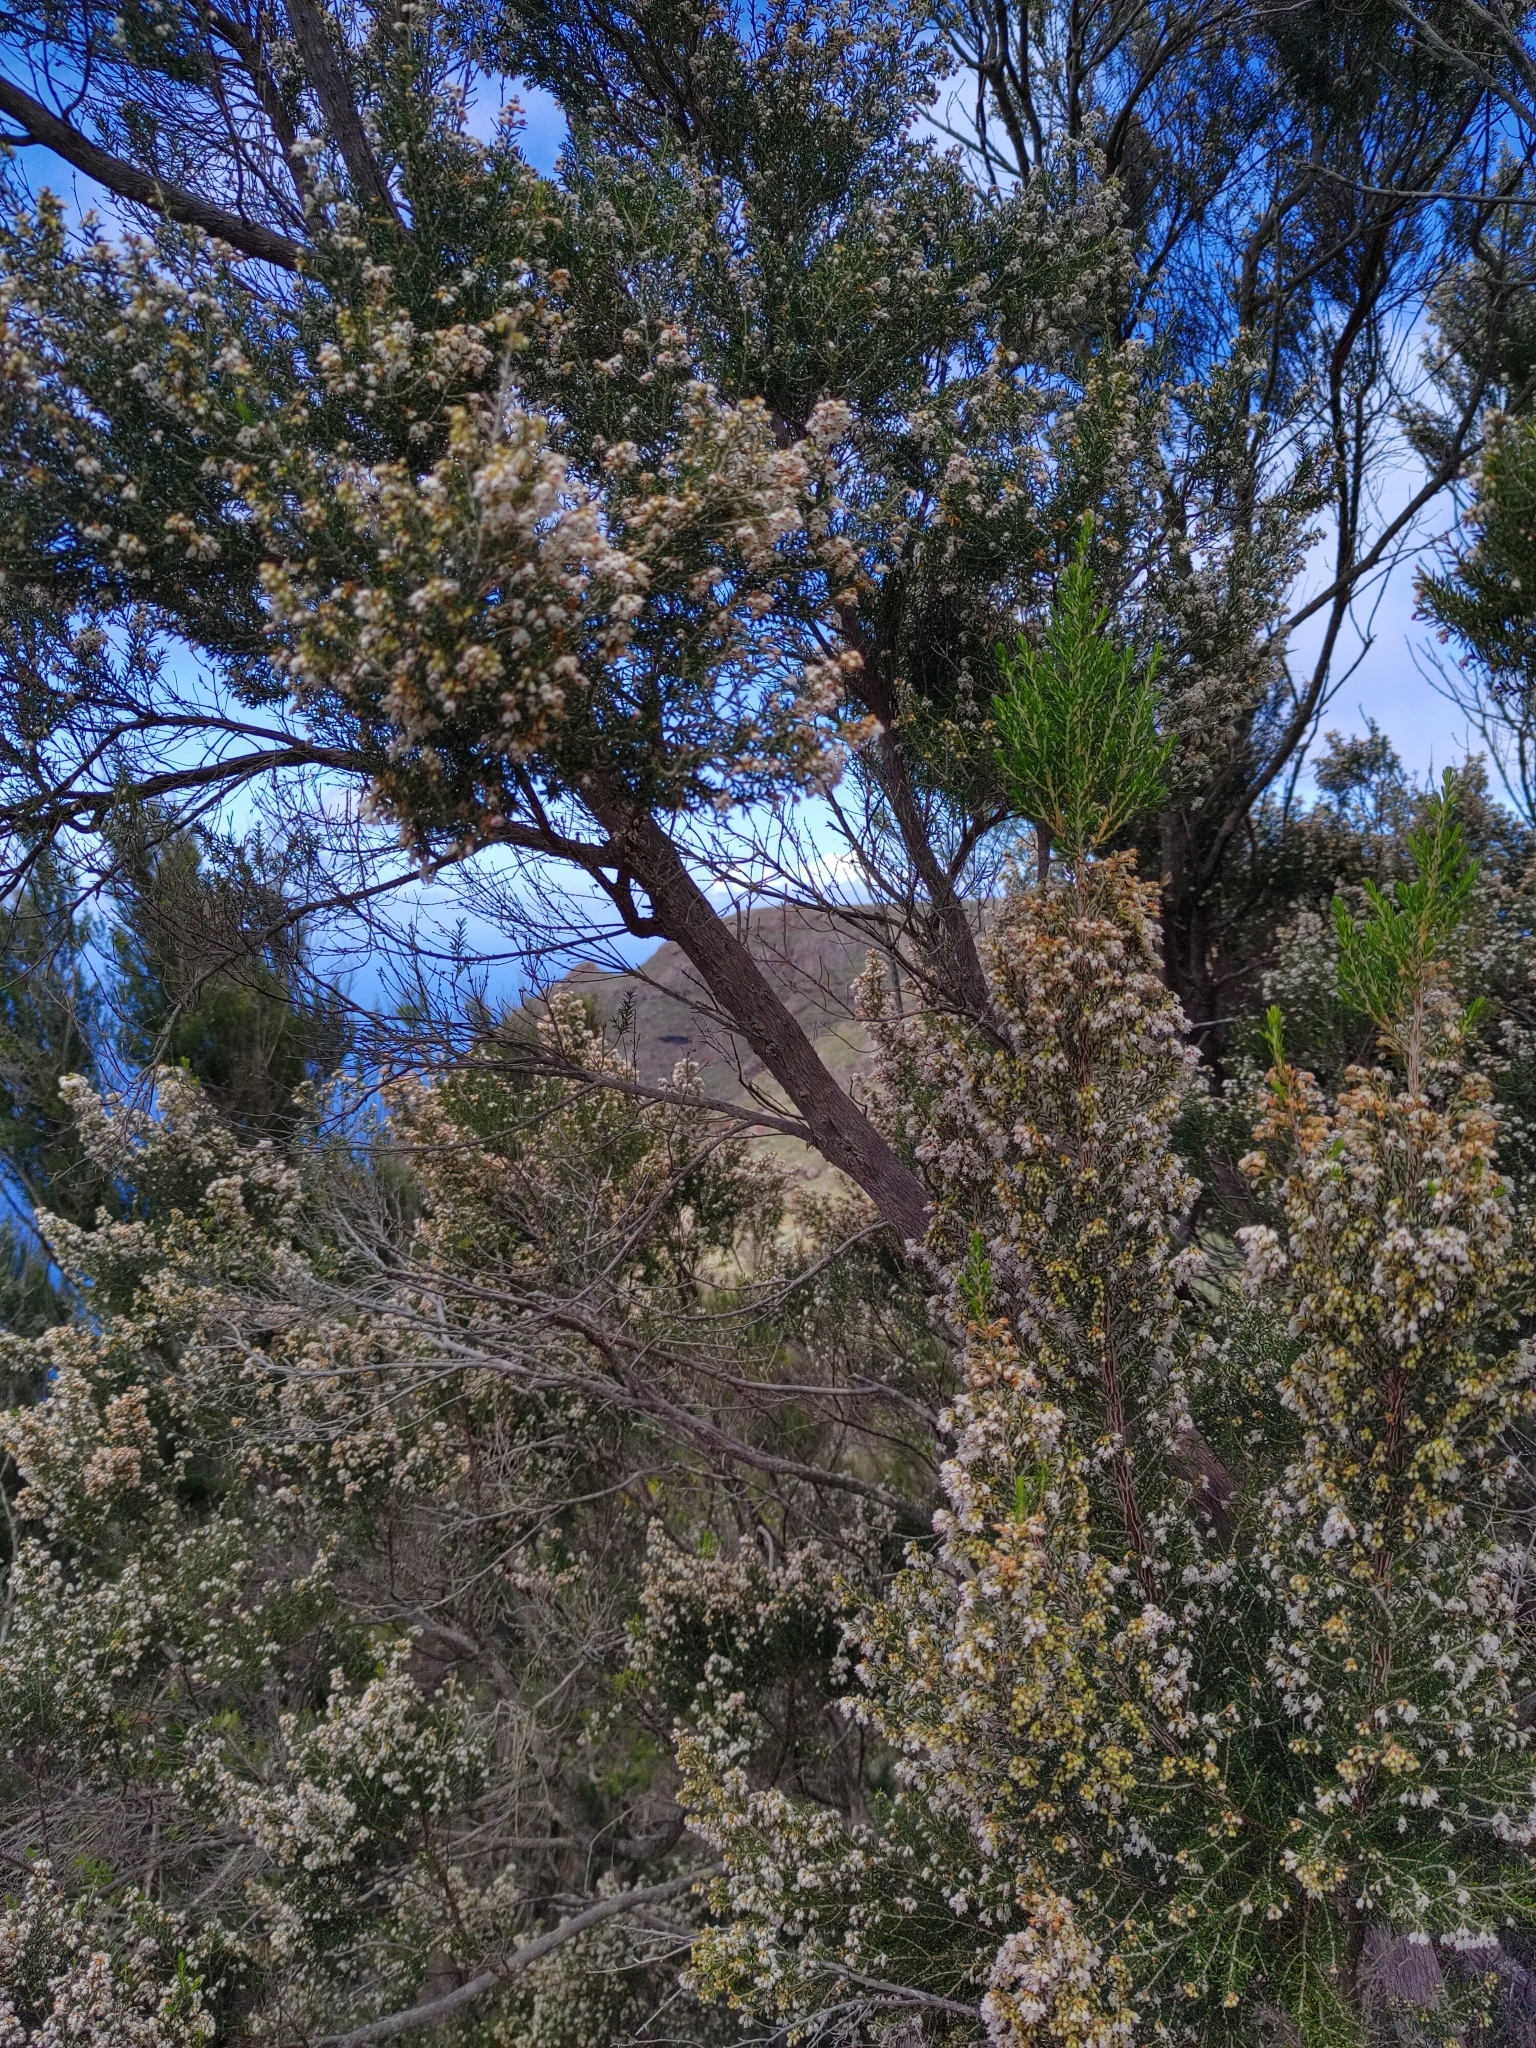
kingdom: Plantae
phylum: Tracheophyta
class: Magnoliopsida
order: Ericales
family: Ericaceae
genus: Erica
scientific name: Erica canariensis
